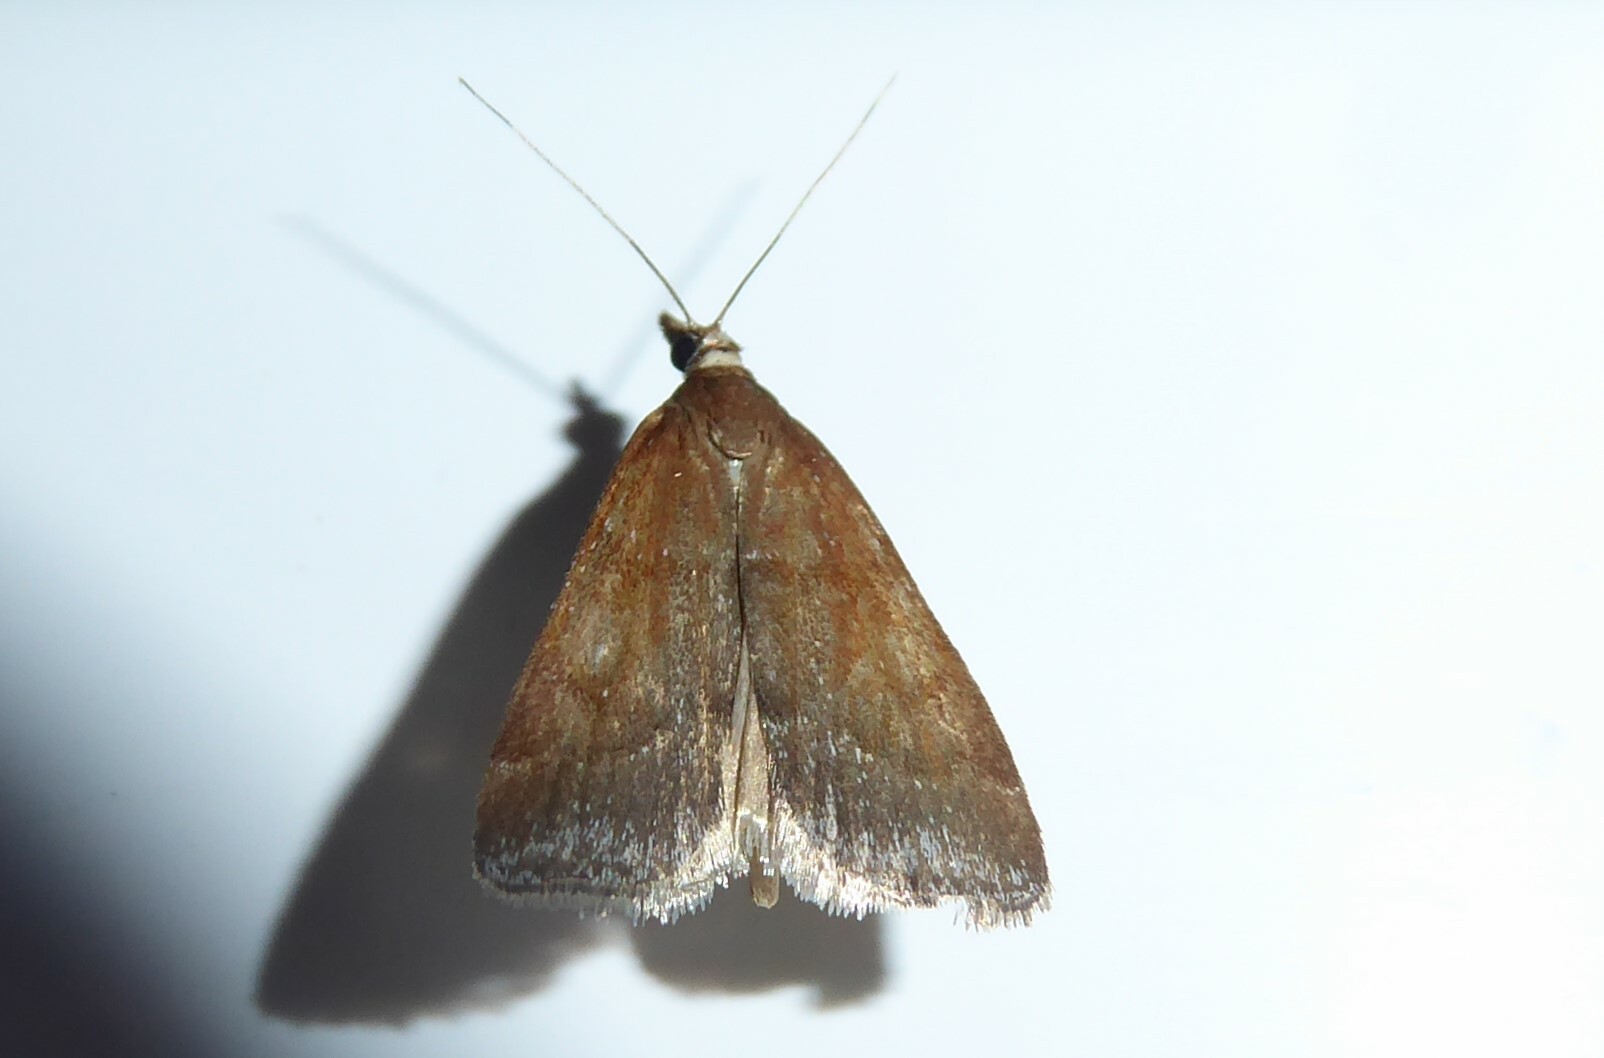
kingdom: Animalia
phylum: Arthropoda
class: Insecta
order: Lepidoptera
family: Crambidae
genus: Eudonia
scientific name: Eudonia feredayi
